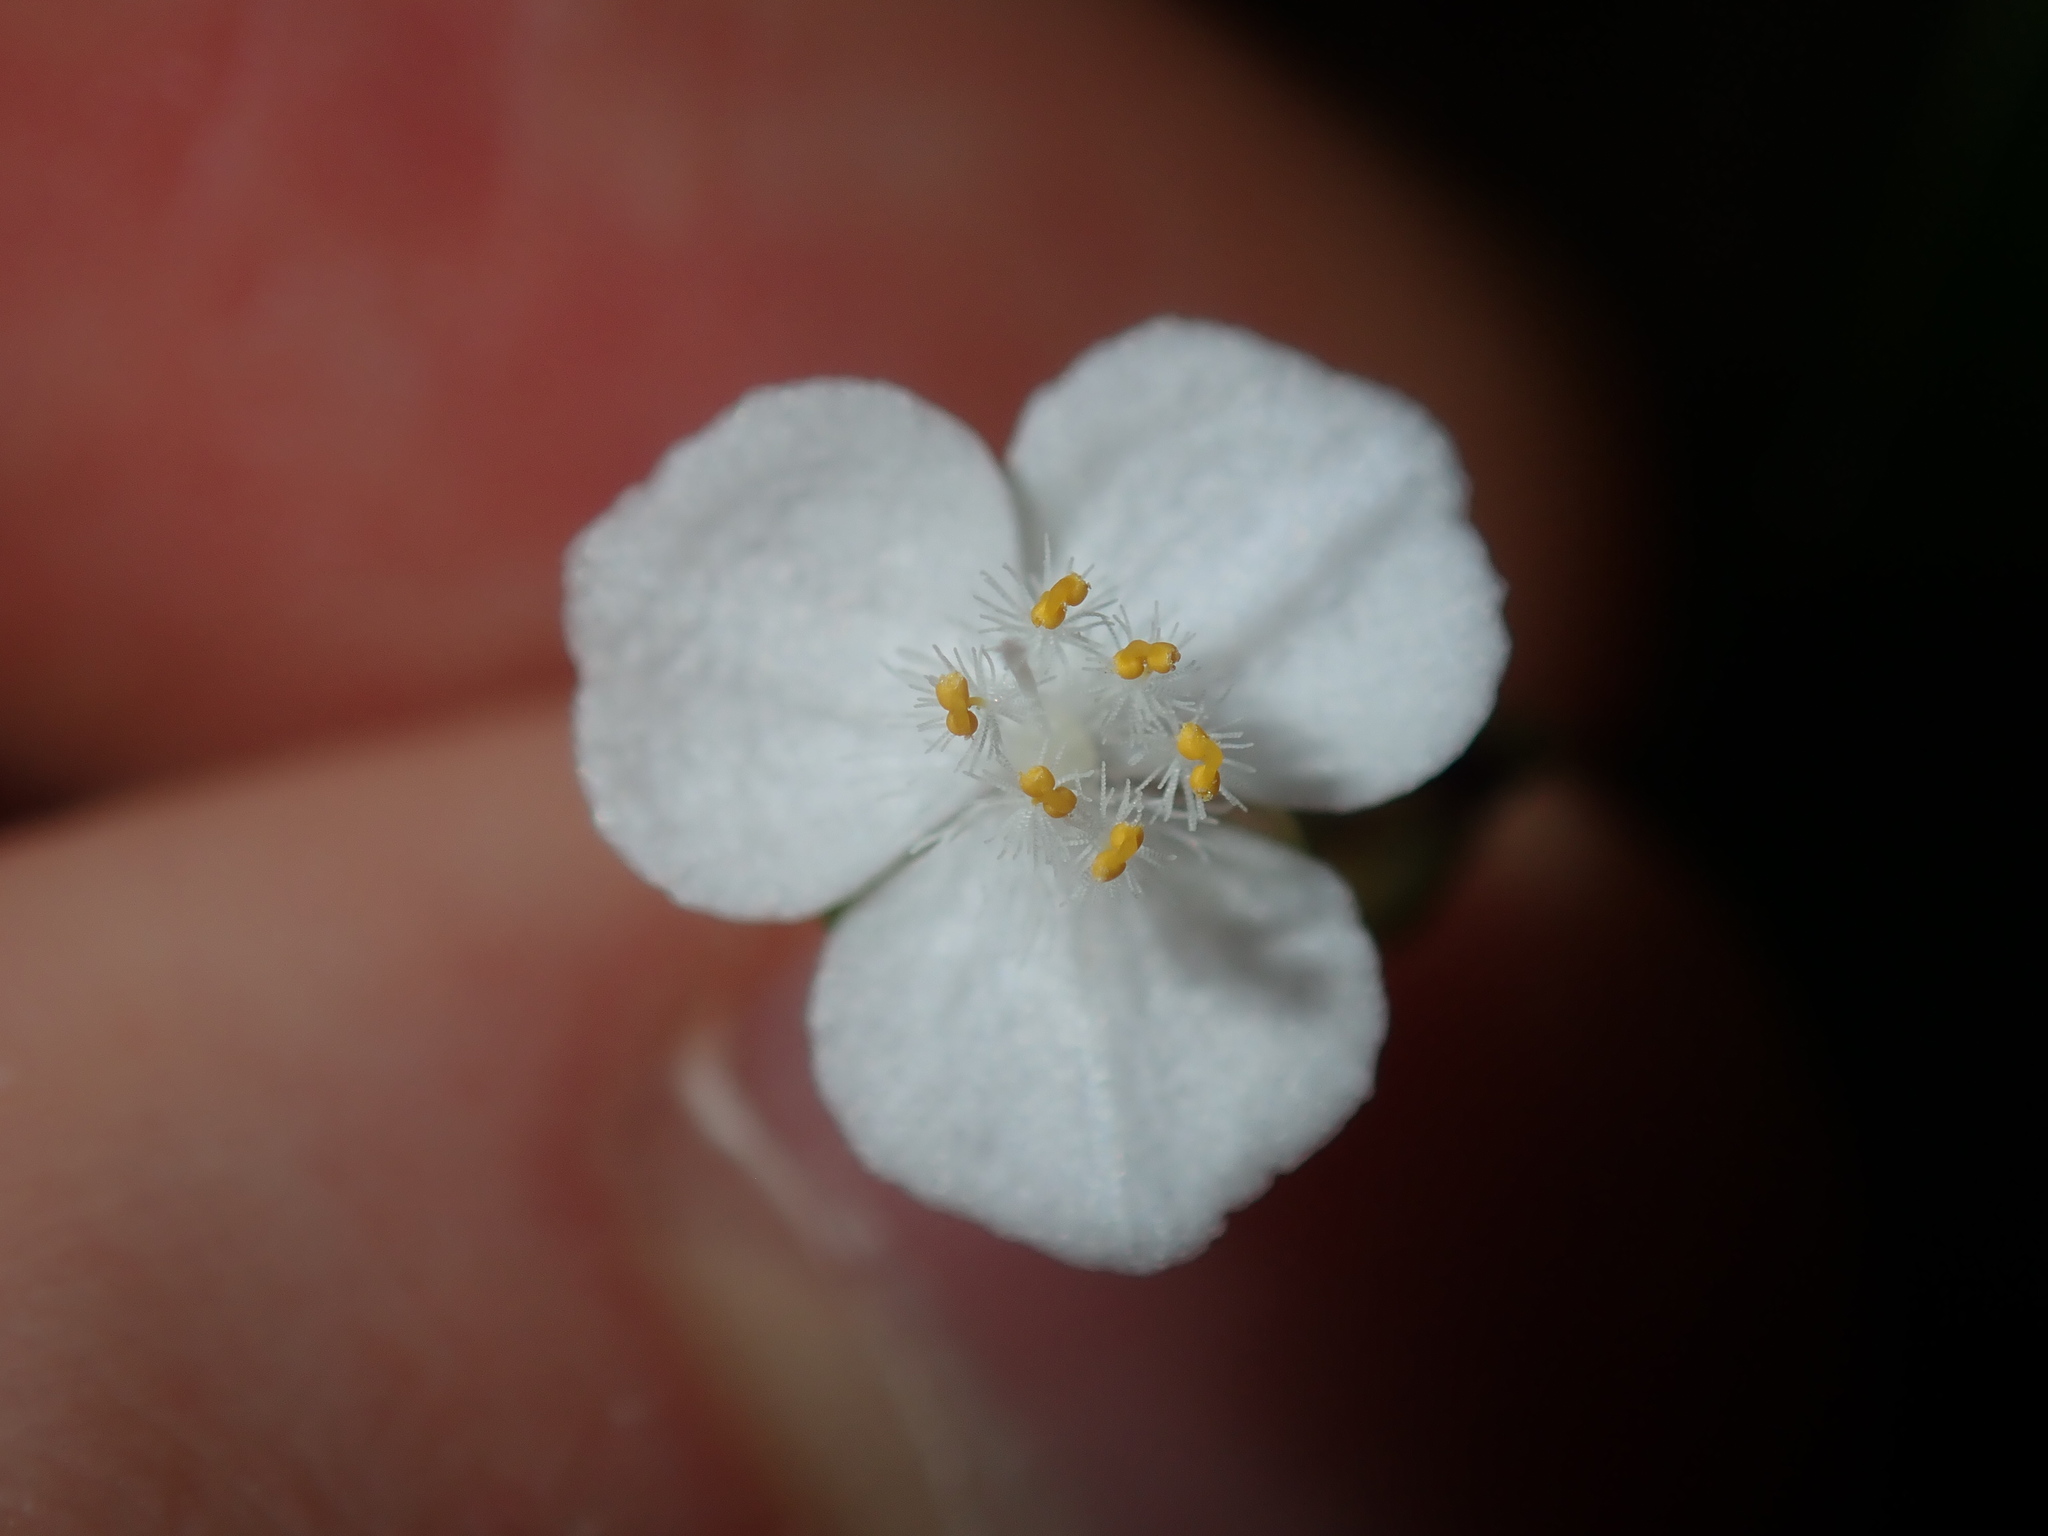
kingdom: Plantae
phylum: Tracheophyta
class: Liliopsida
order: Commelinales
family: Commelinaceae
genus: Gibasis
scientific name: Gibasis pellucida
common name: Dotted bridalveil
